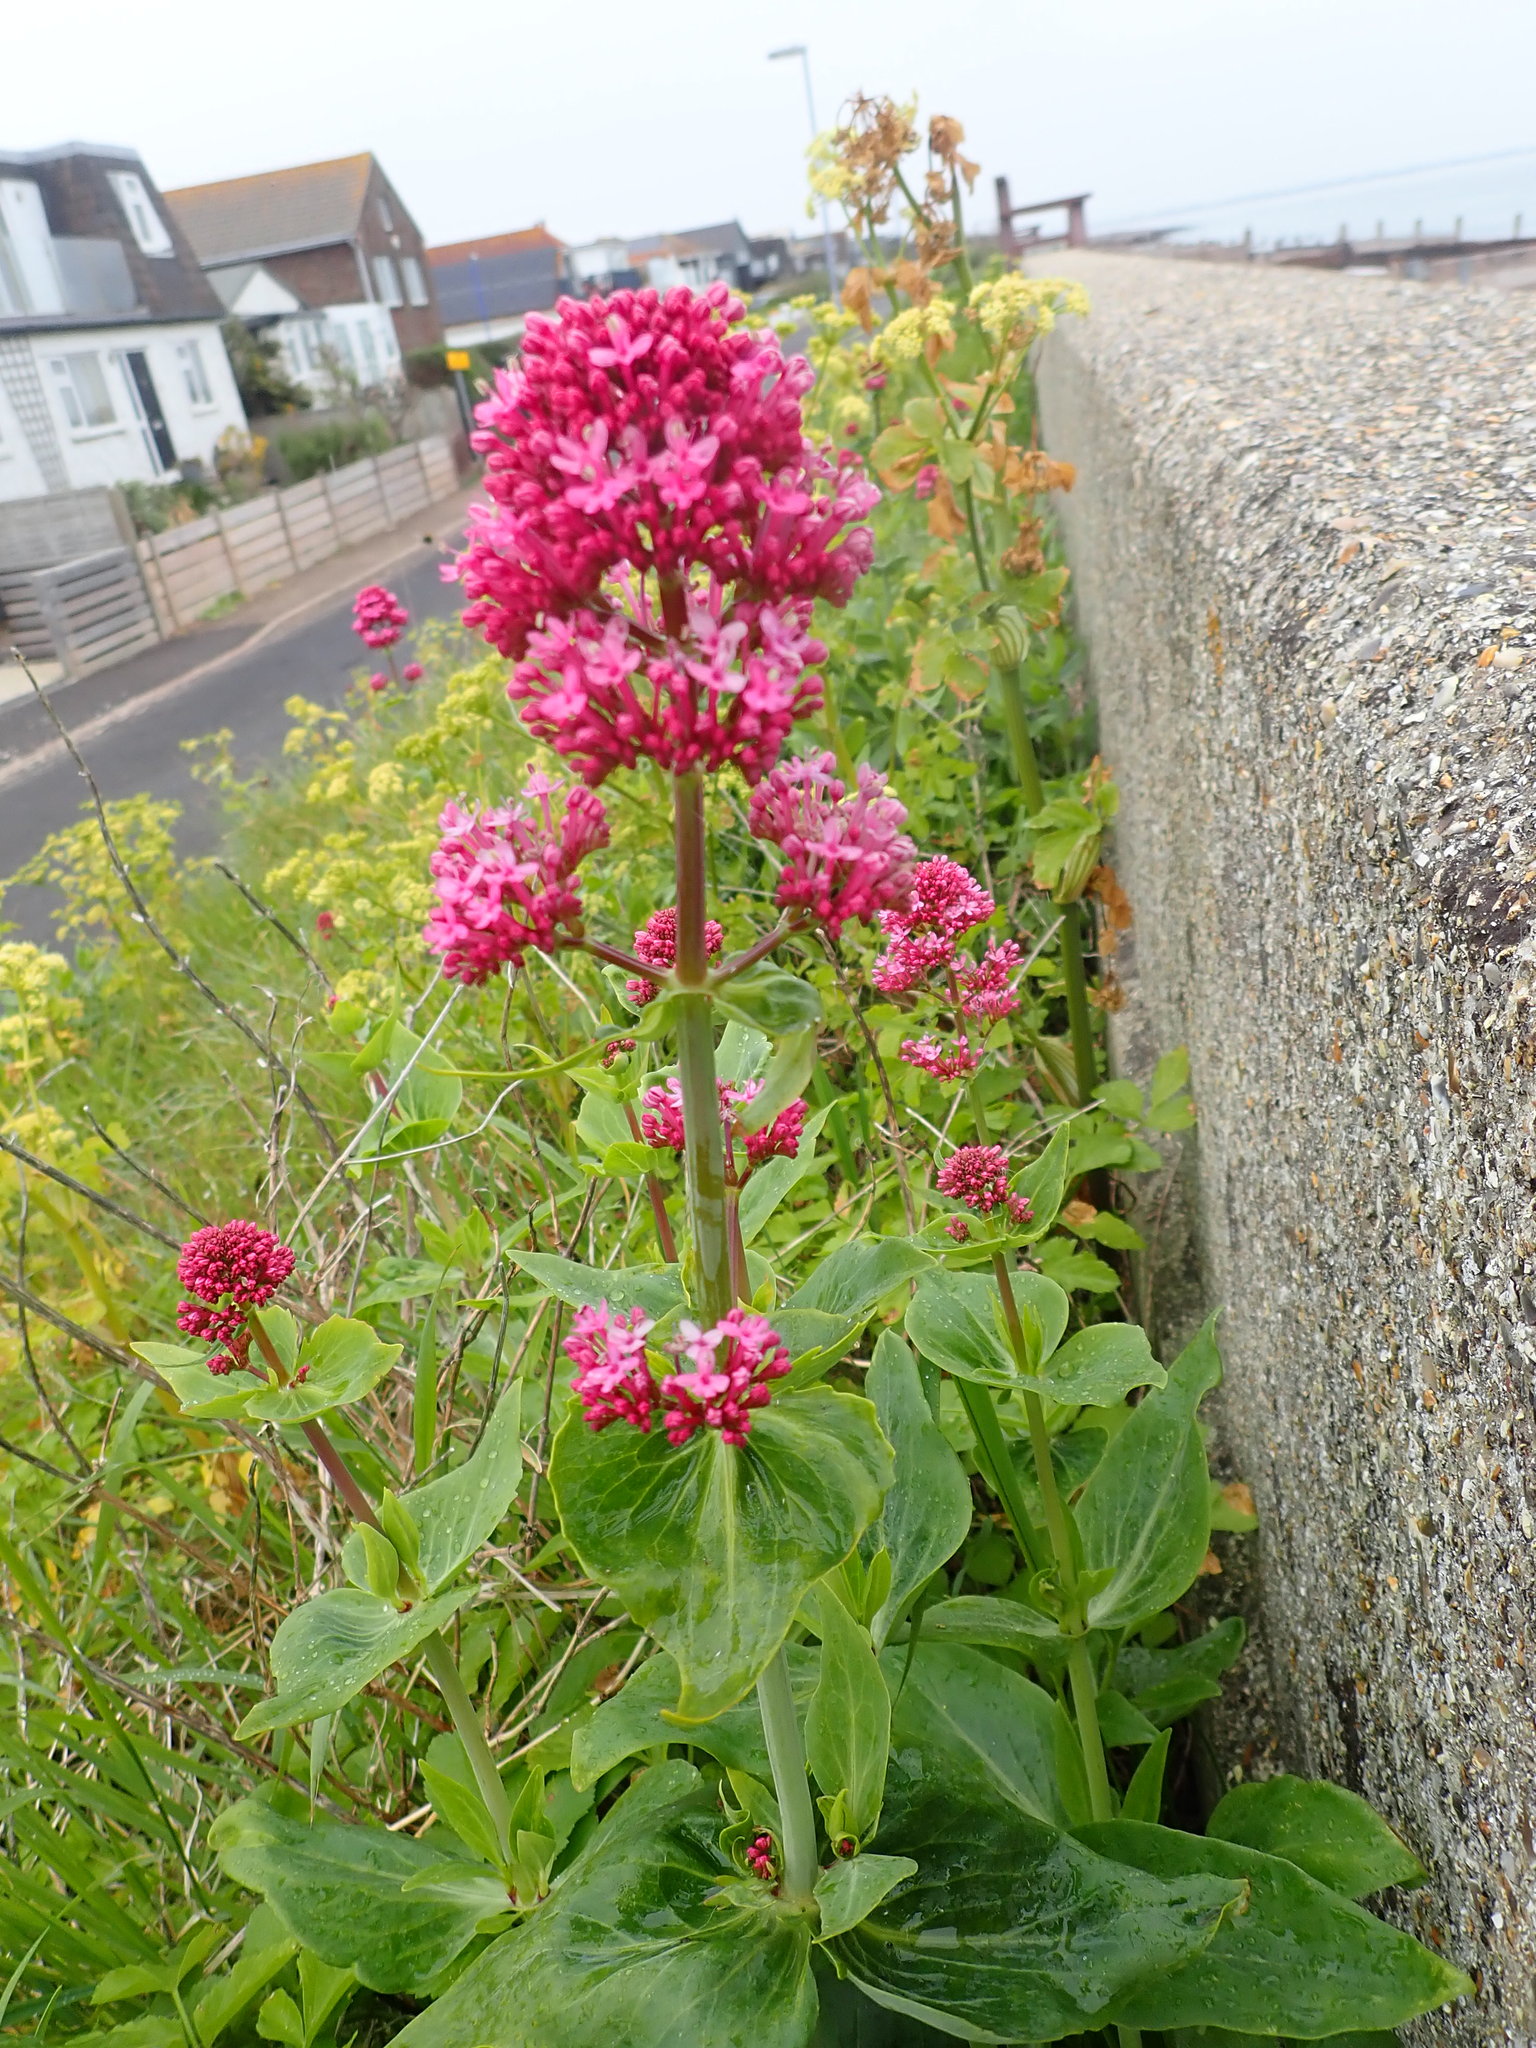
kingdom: Plantae
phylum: Tracheophyta
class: Magnoliopsida
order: Dipsacales
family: Caprifoliaceae
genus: Centranthus
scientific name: Centranthus ruber
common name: Red valerian
